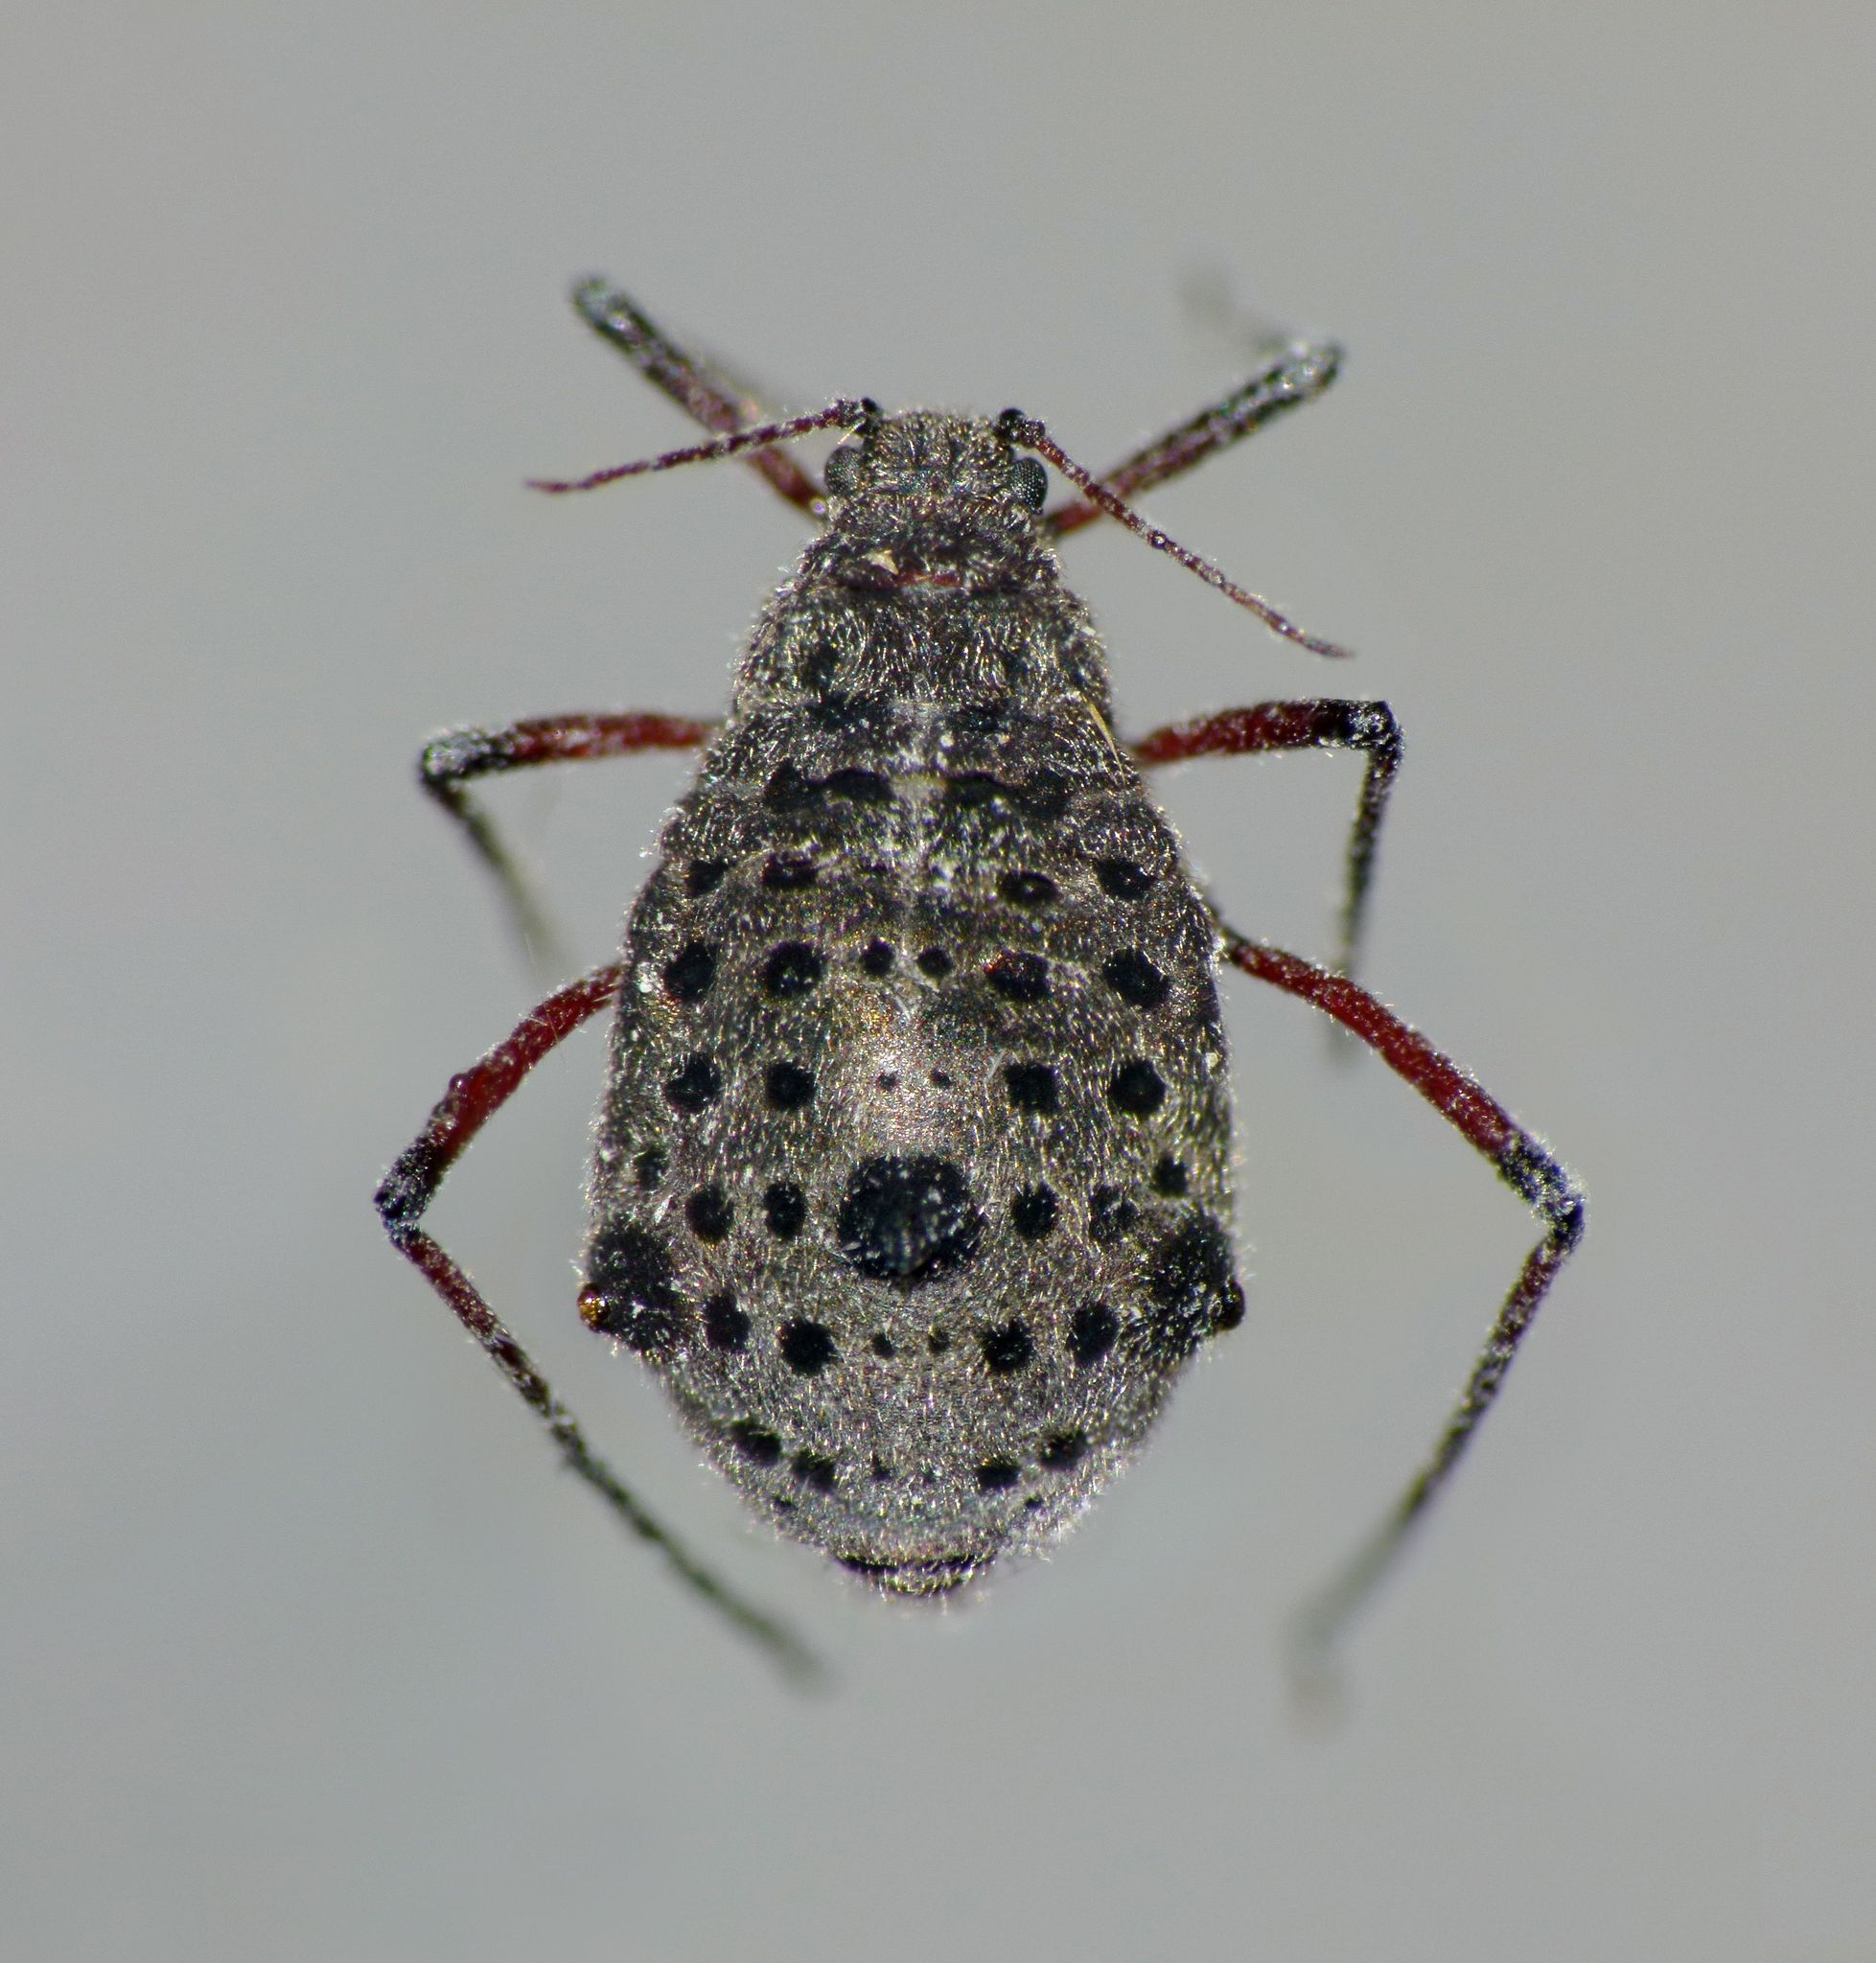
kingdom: Animalia
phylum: Arthropoda
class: Insecta
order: Hemiptera
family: Aphididae
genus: Tuberolachnus
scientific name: Tuberolachnus salignus
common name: Giant willow aphid
